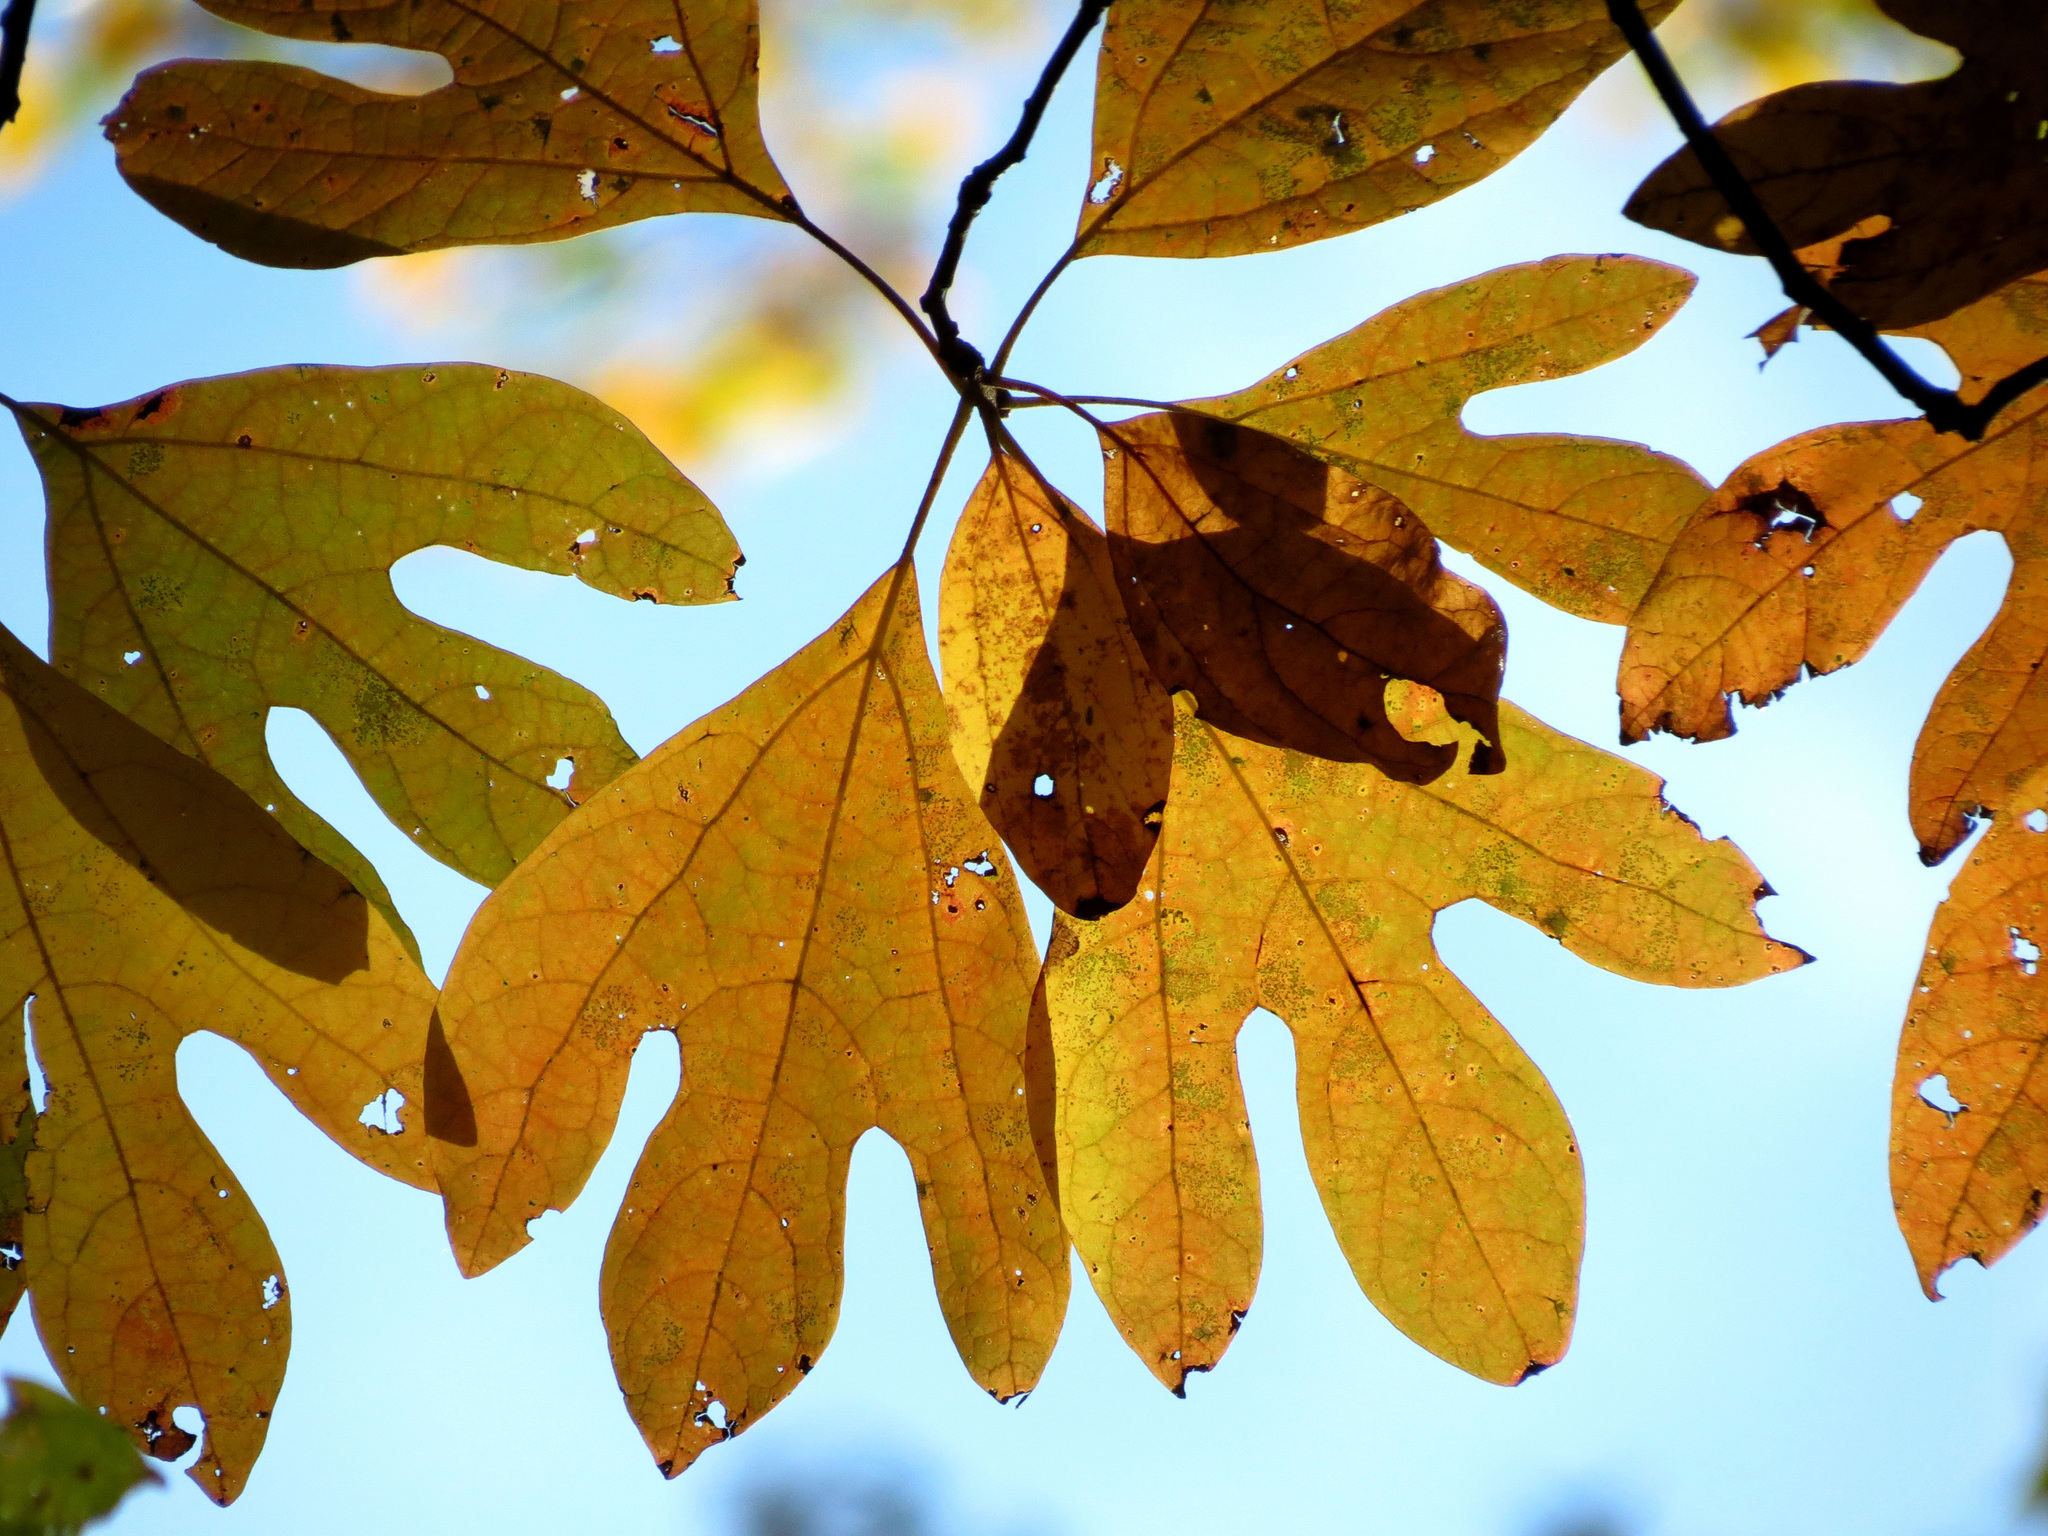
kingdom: Plantae
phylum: Tracheophyta
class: Magnoliopsida
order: Laurales
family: Lauraceae
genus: Sassafras
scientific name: Sassafras albidum
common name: Sassafras
